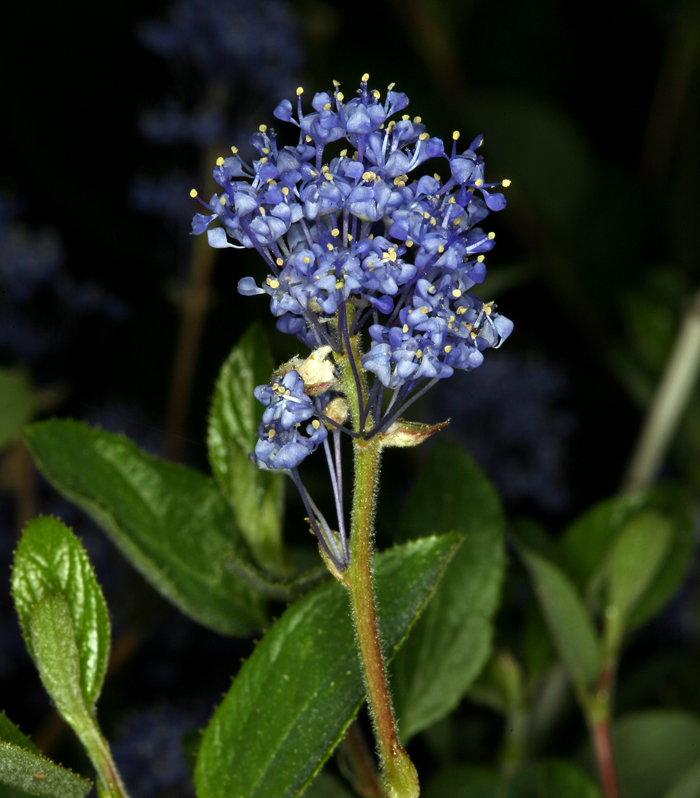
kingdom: Plantae
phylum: Tracheophyta
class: Magnoliopsida
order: Rosales
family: Rhamnaceae
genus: Ceanothus
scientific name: Ceanothus lemmonii
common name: Lemmon's ceanothus
